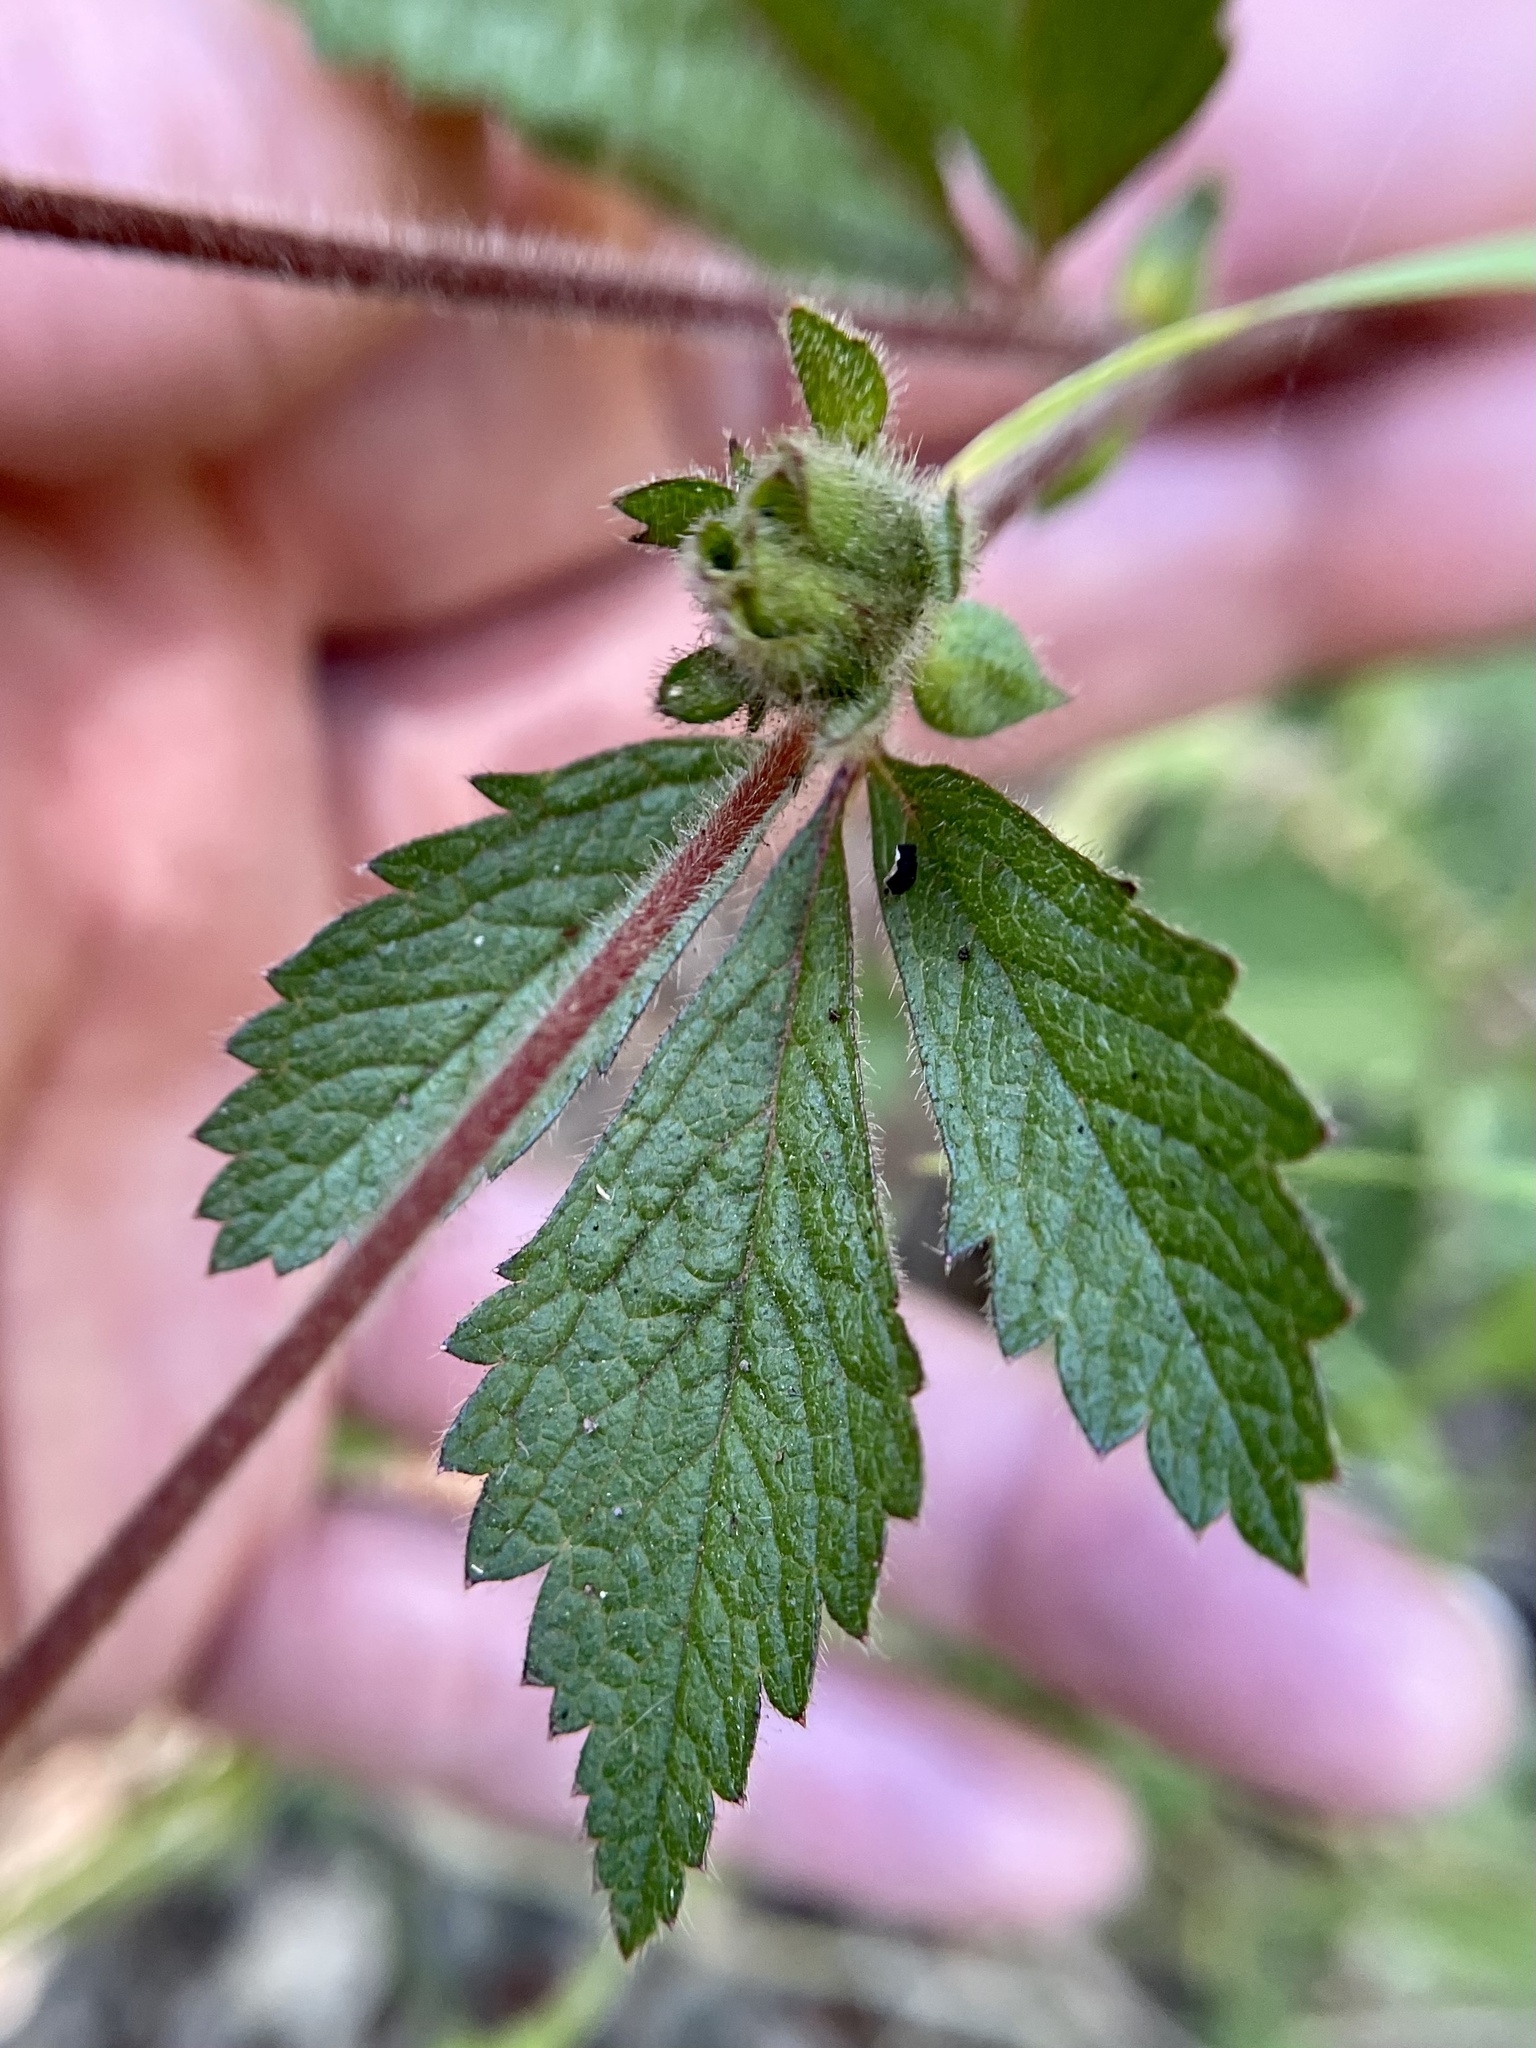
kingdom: Plantae
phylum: Tracheophyta
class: Magnoliopsida
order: Rosales
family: Rosaceae
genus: Drymocallis
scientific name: Drymocallis glandulosa
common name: Sticky cinquefoil
